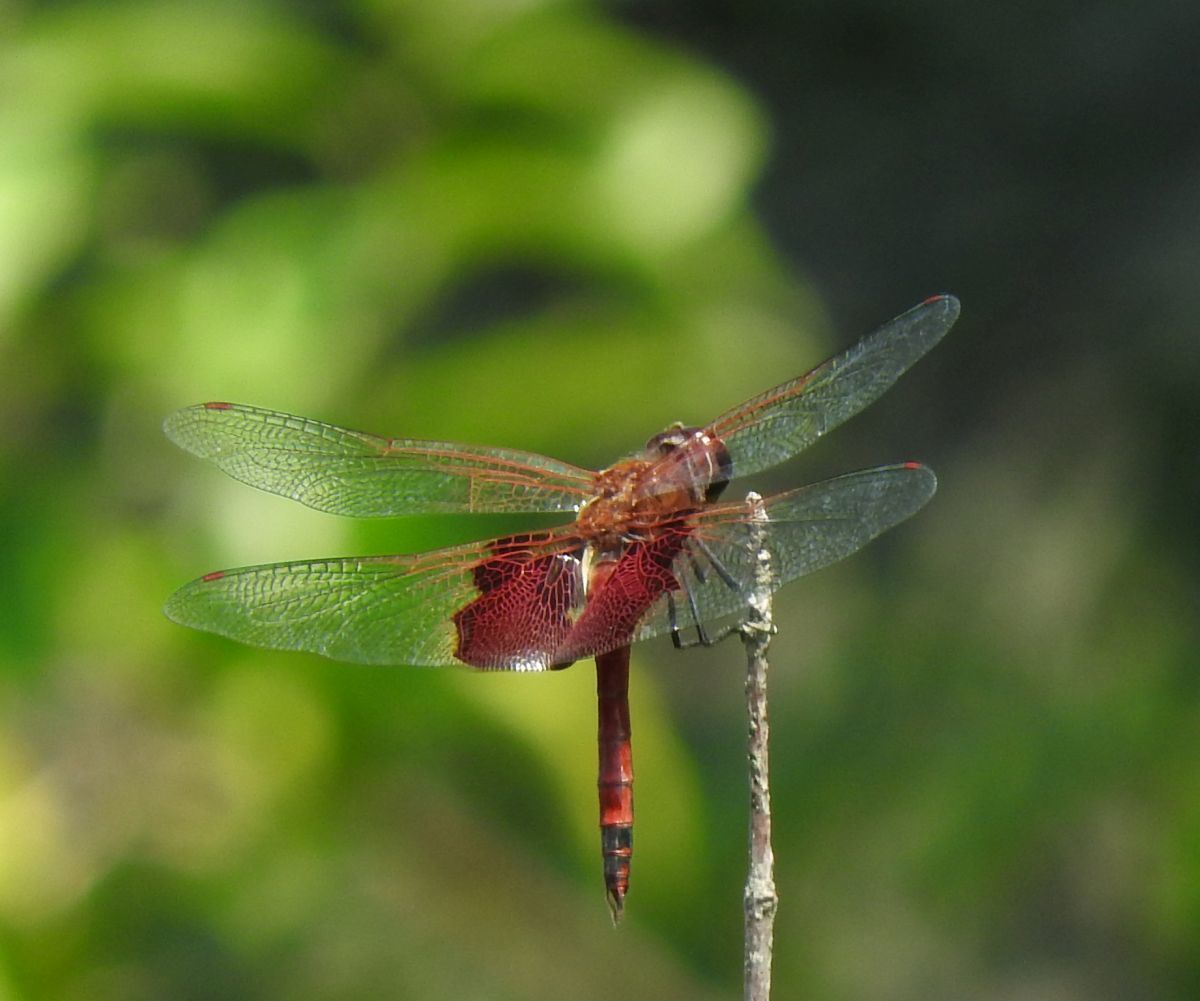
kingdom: Animalia
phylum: Arthropoda
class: Insecta
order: Odonata
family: Libellulidae
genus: Tramea
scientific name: Tramea carolina
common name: Carolina saddlebags
